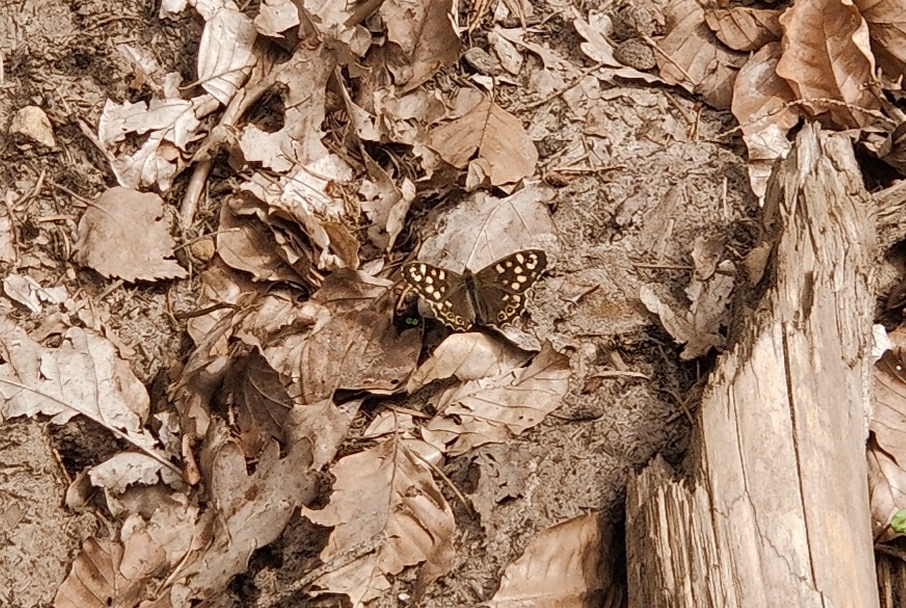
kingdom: Animalia
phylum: Arthropoda
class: Insecta
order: Lepidoptera
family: Nymphalidae
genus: Pararge
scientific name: Pararge aegeria
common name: Speckled wood
